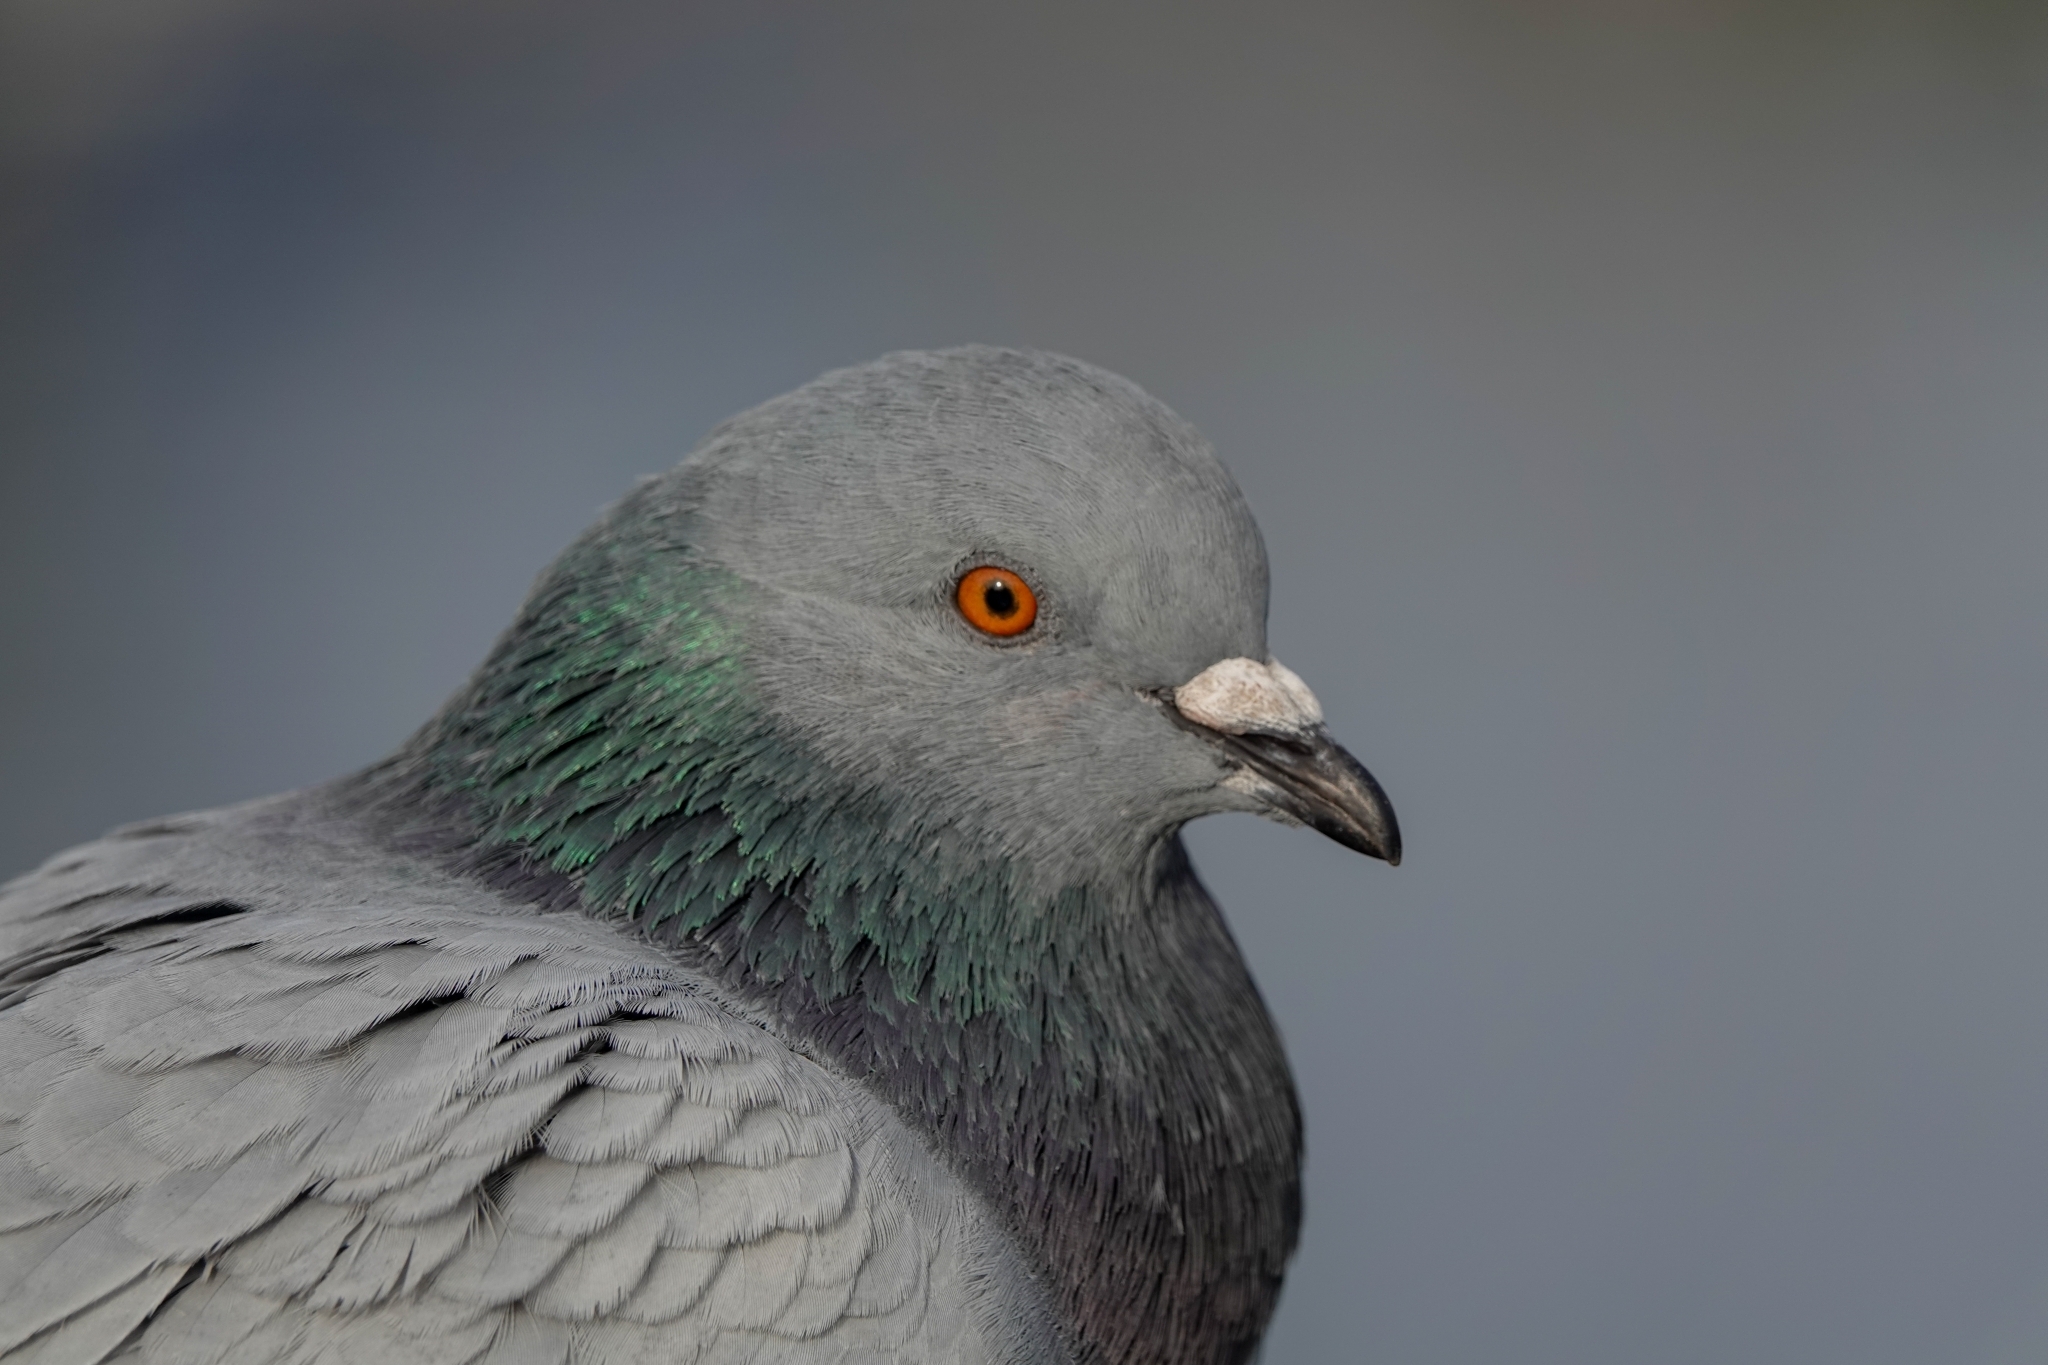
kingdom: Animalia
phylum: Chordata
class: Aves
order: Columbiformes
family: Columbidae
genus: Columba
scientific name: Columba livia
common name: Rock pigeon
